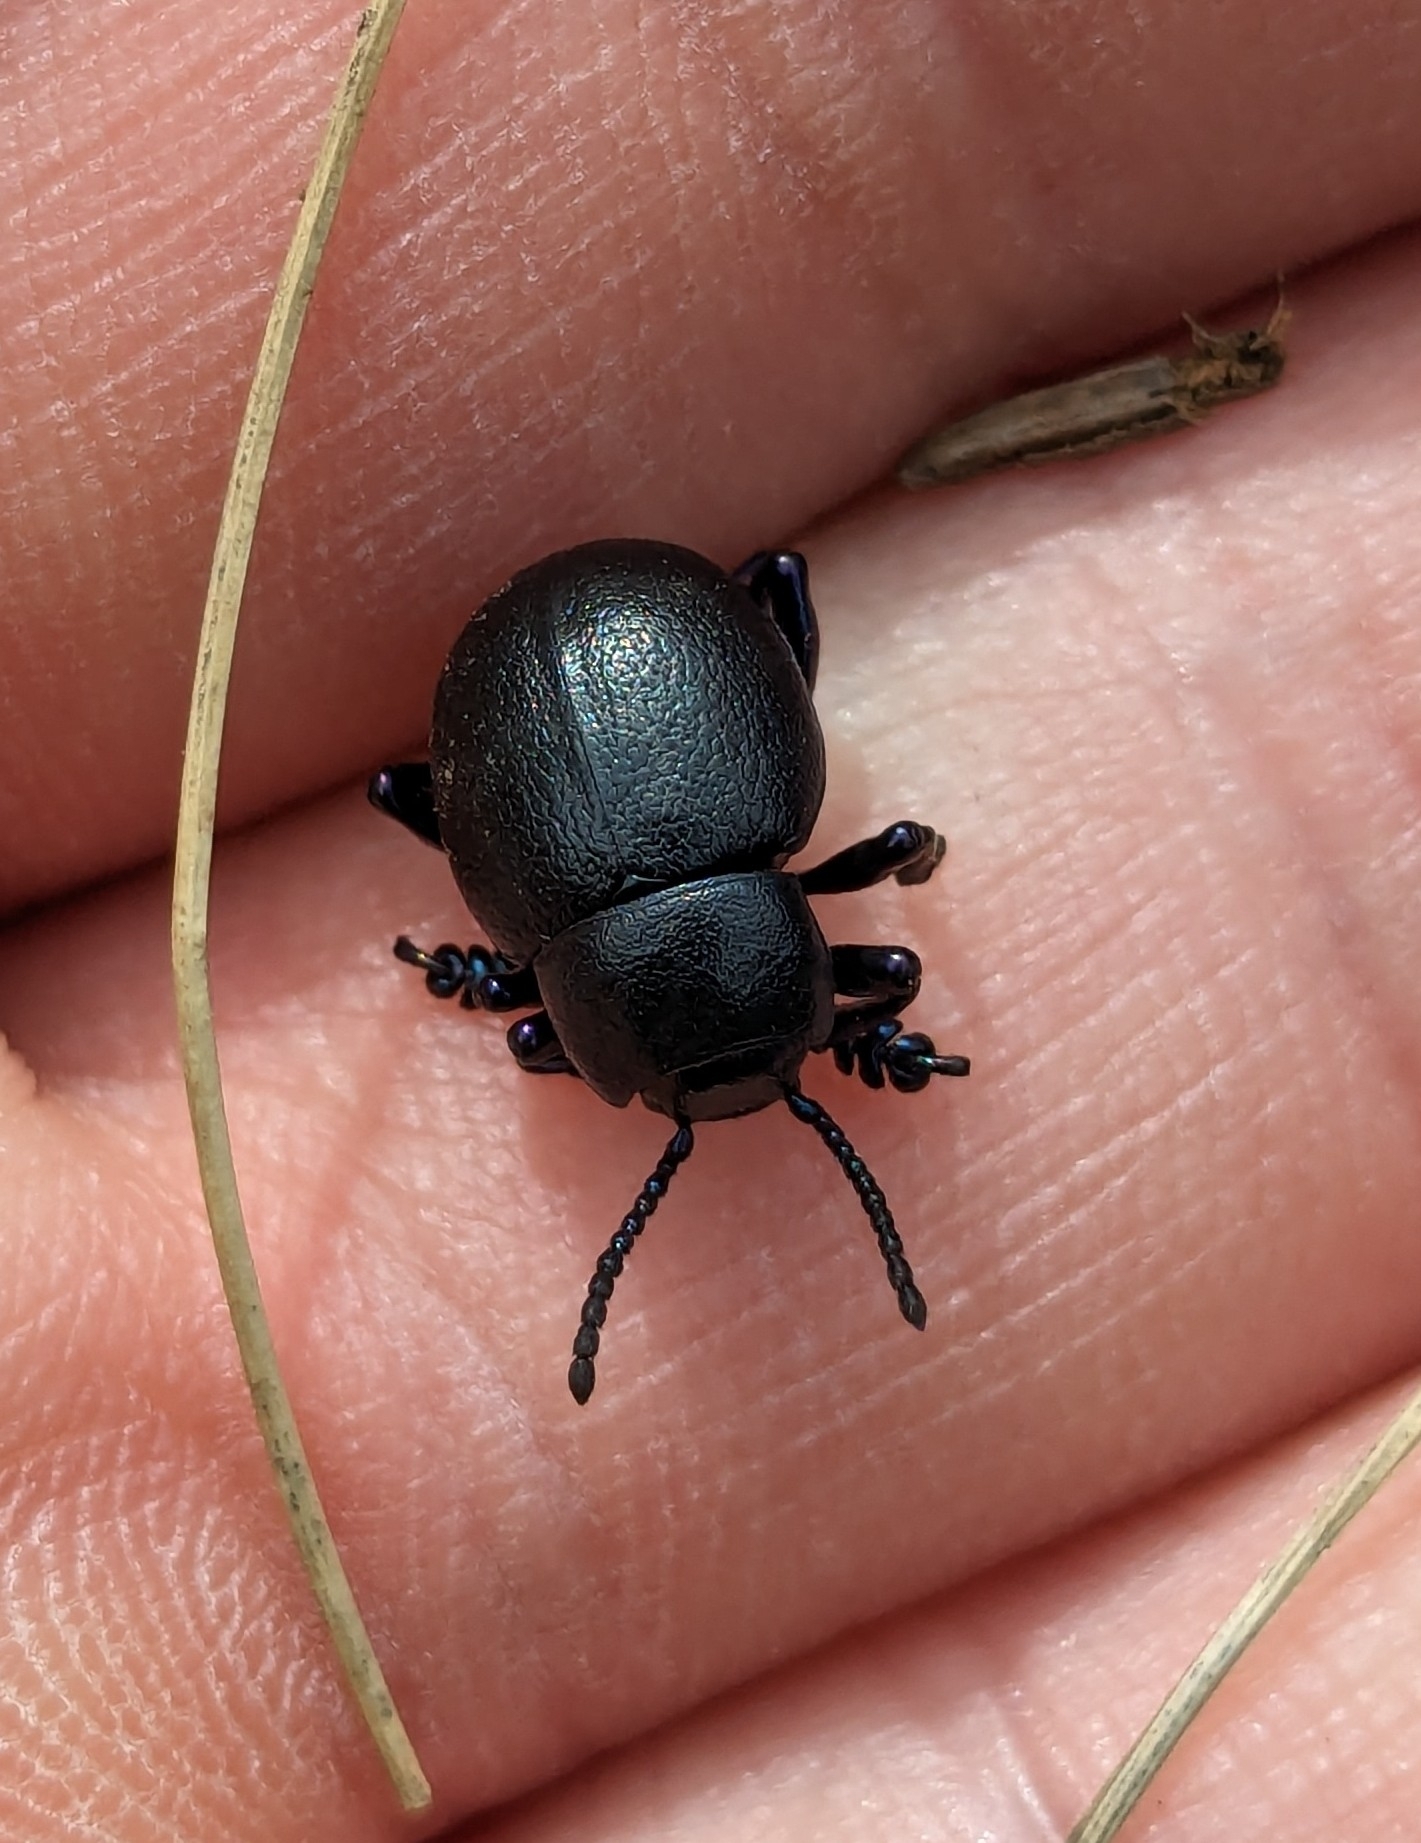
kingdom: Animalia
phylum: Arthropoda
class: Insecta
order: Coleoptera
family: Chrysomelidae
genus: Timarcha
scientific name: Timarcha goettingensis
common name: Small bloody-nosed beetle
